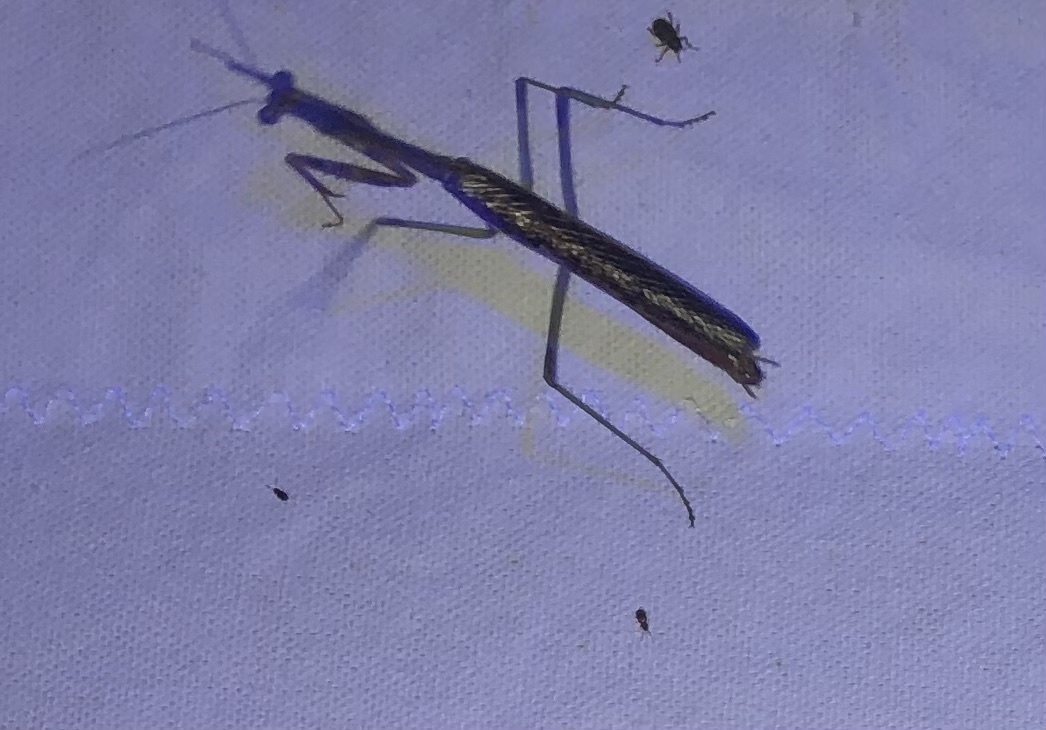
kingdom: Animalia
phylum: Arthropoda
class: Insecta
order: Mantodea
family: Mantidae
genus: Stagmomantis
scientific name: Stagmomantis carolina
